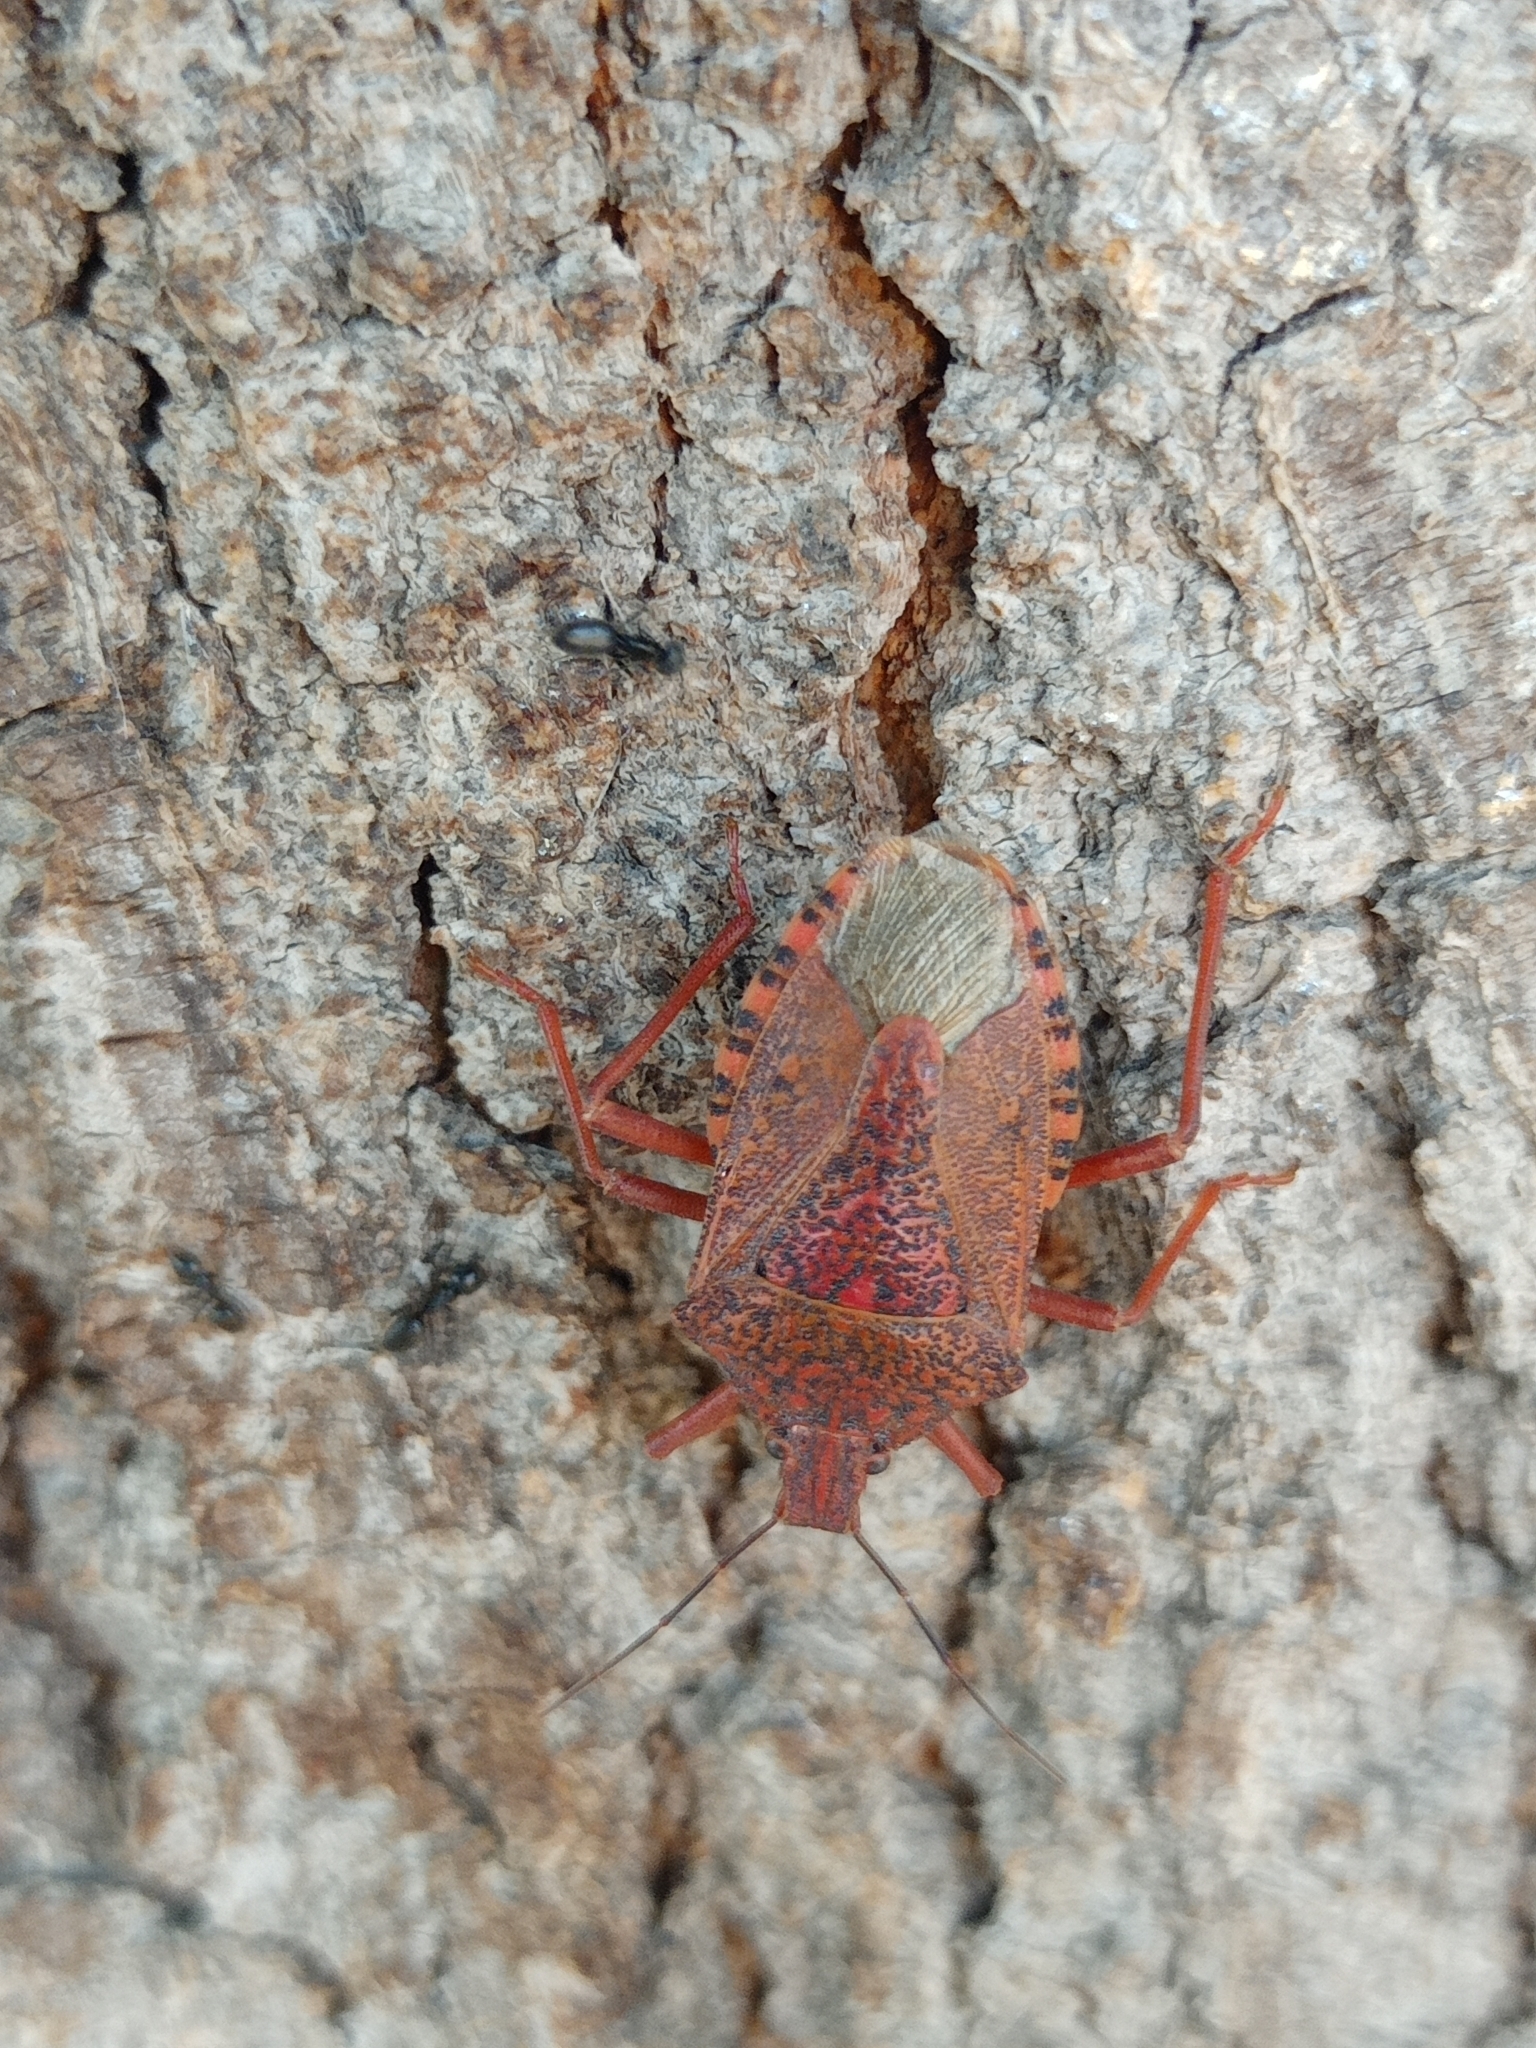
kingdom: Animalia
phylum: Arthropoda
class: Insecta
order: Hemiptera
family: Pentatomidae
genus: Apodiphus
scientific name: Apodiphus
